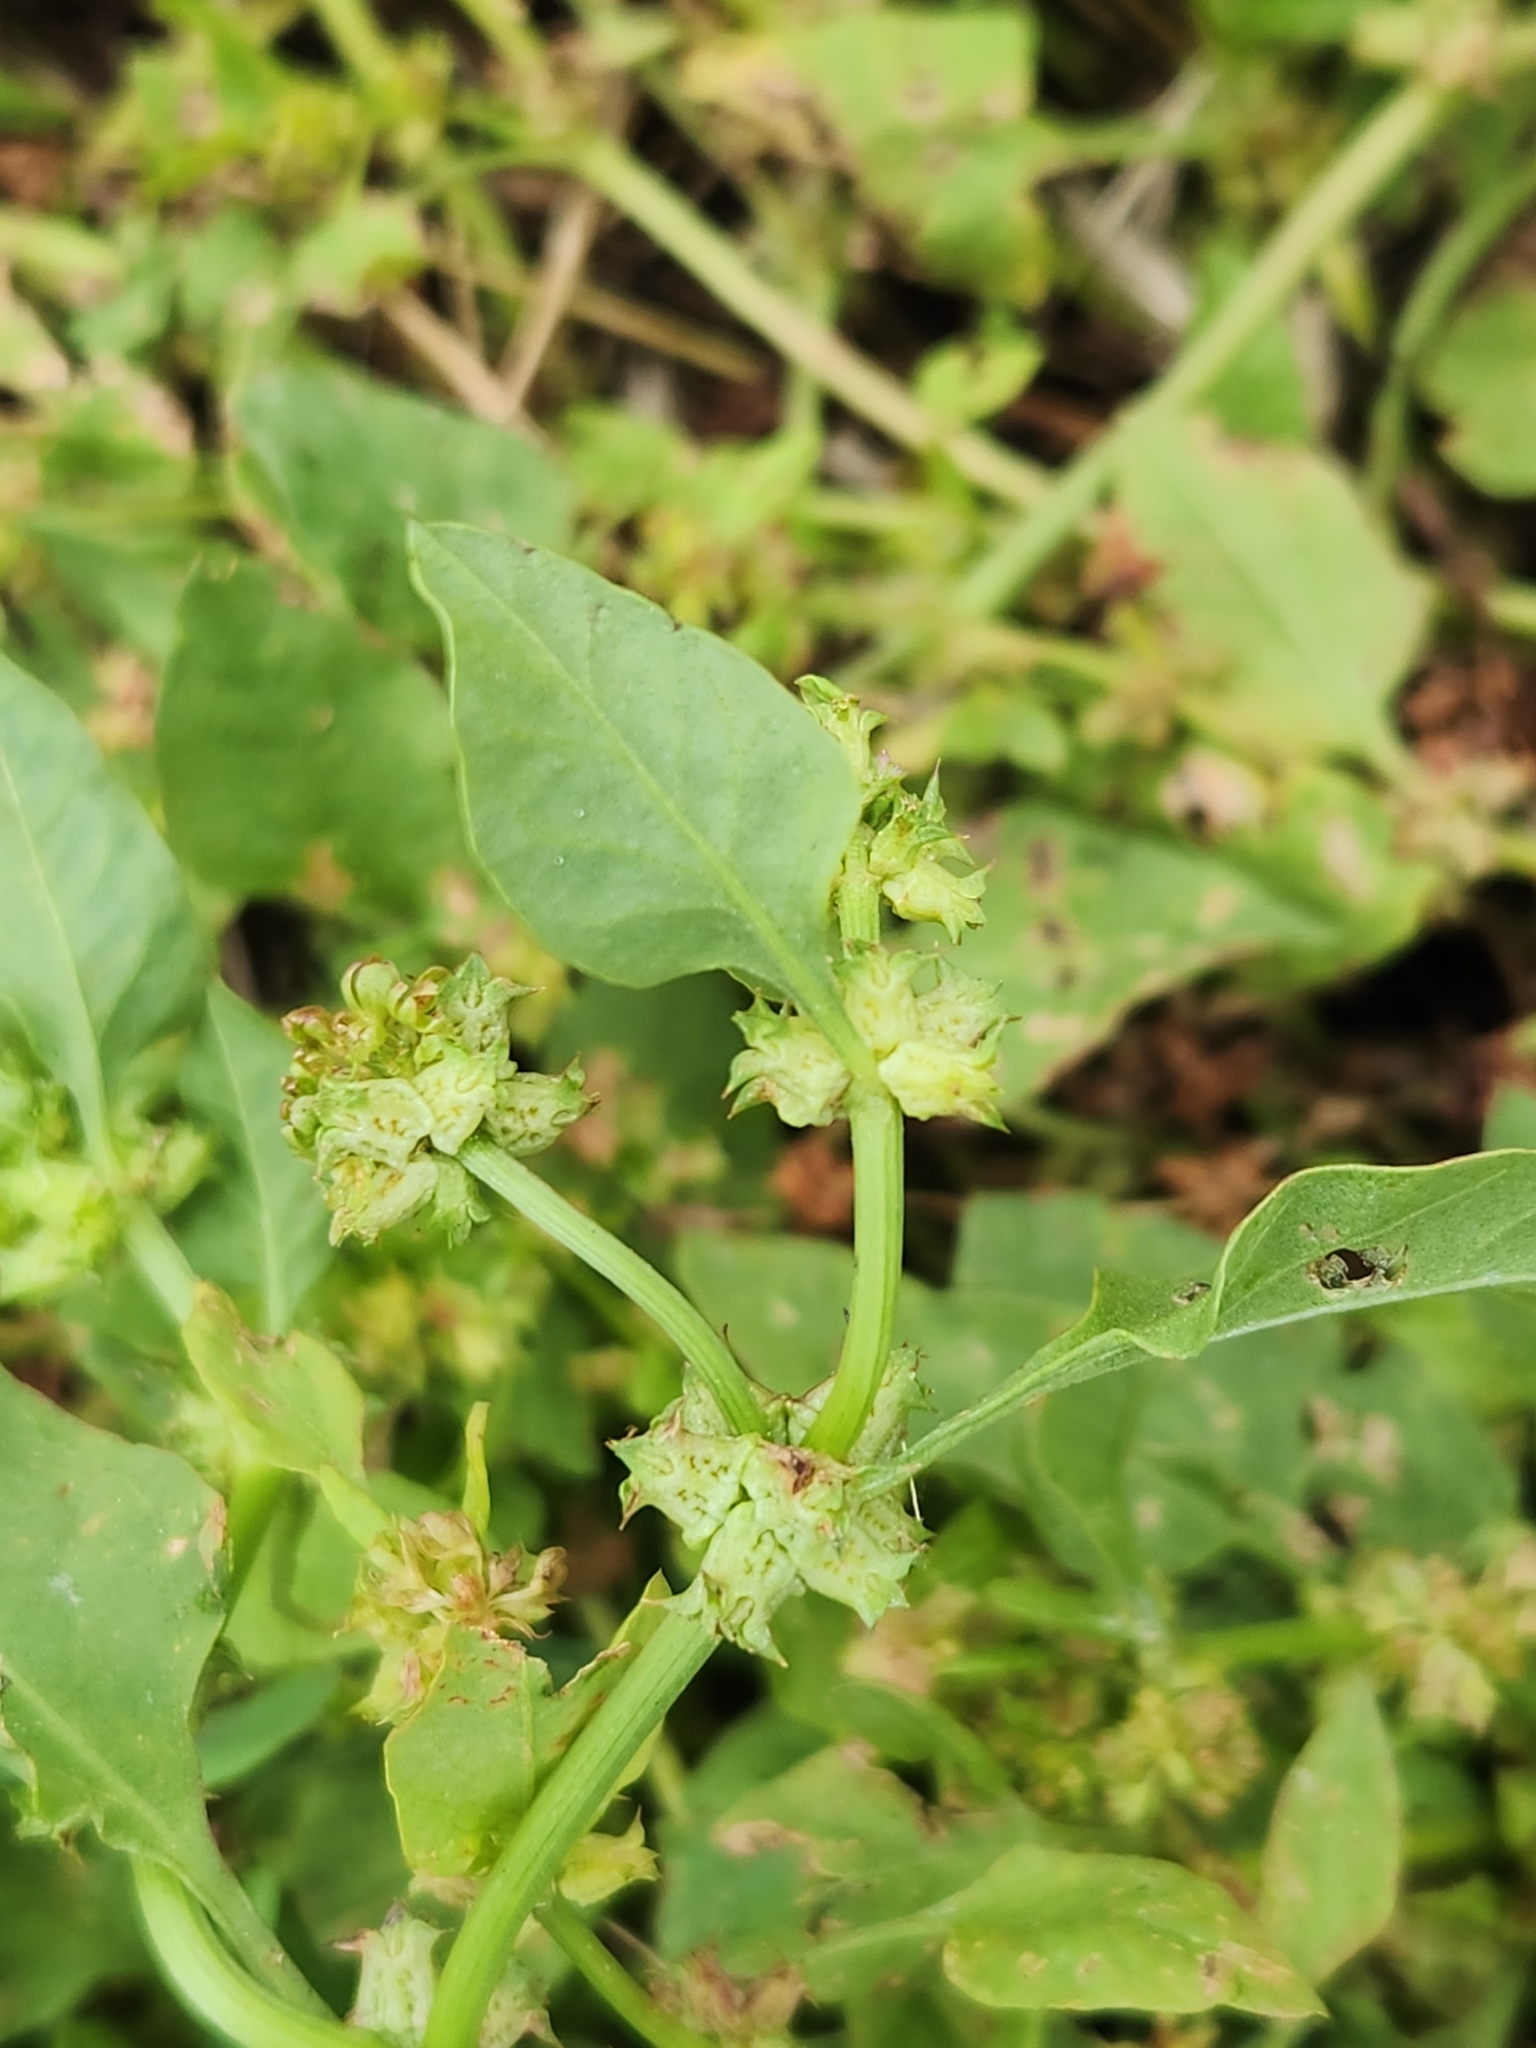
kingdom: Plantae
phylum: Tracheophyta
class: Magnoliopsida
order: Caryophyllales
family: Polygonaceae
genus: Rumex
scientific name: Rumex spinosus
